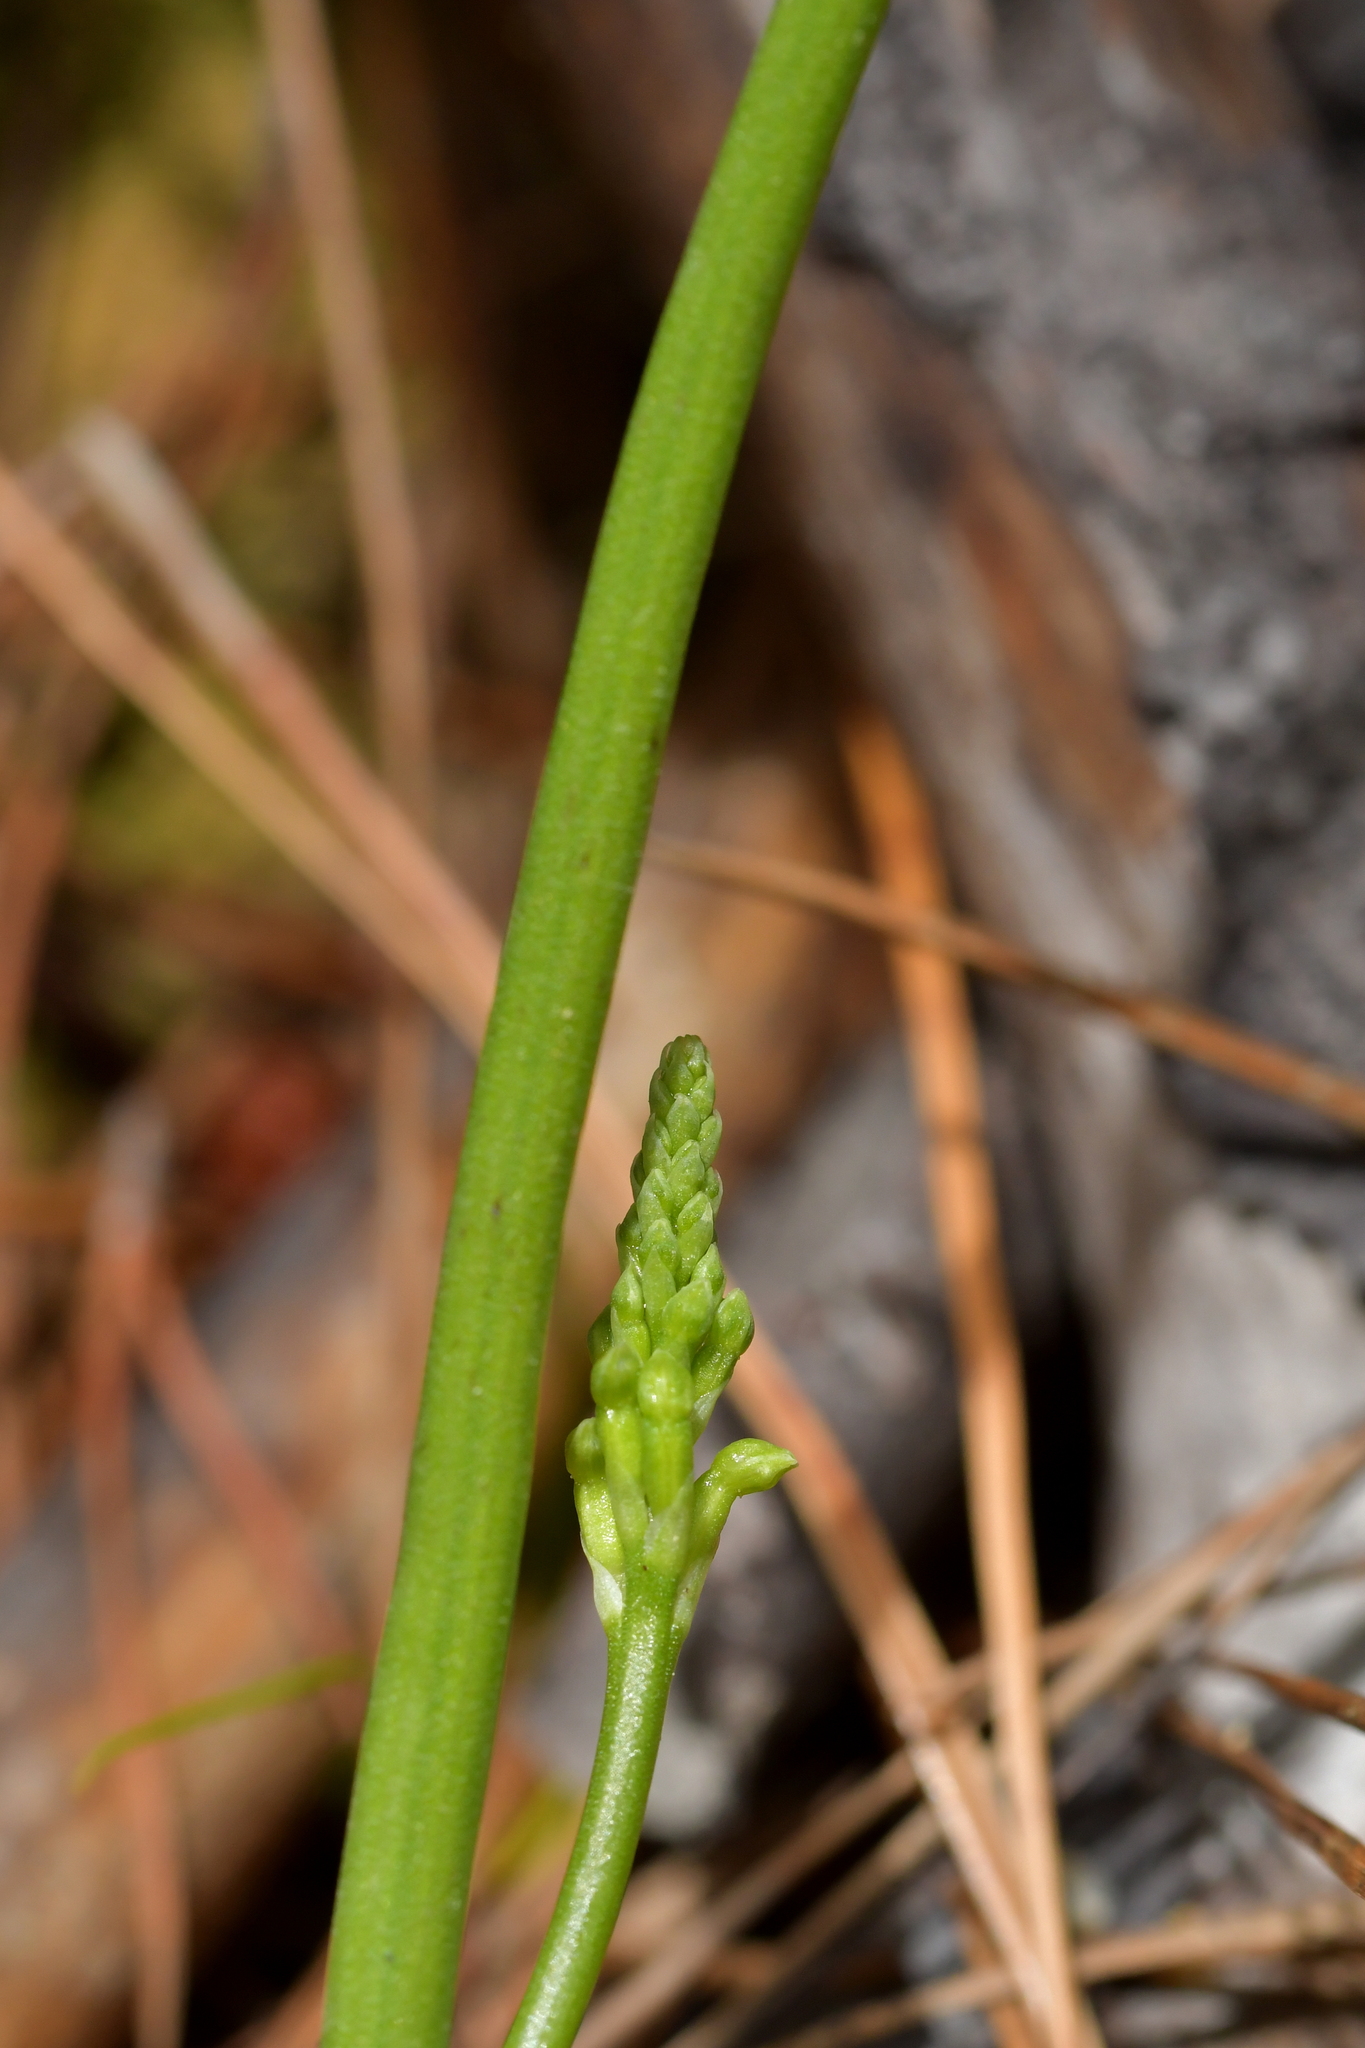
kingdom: Plantae
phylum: Tracheophyta
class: Liliopsida
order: Asparagales
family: Orchidaceae
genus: Microtis
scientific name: Microtis unifolia
